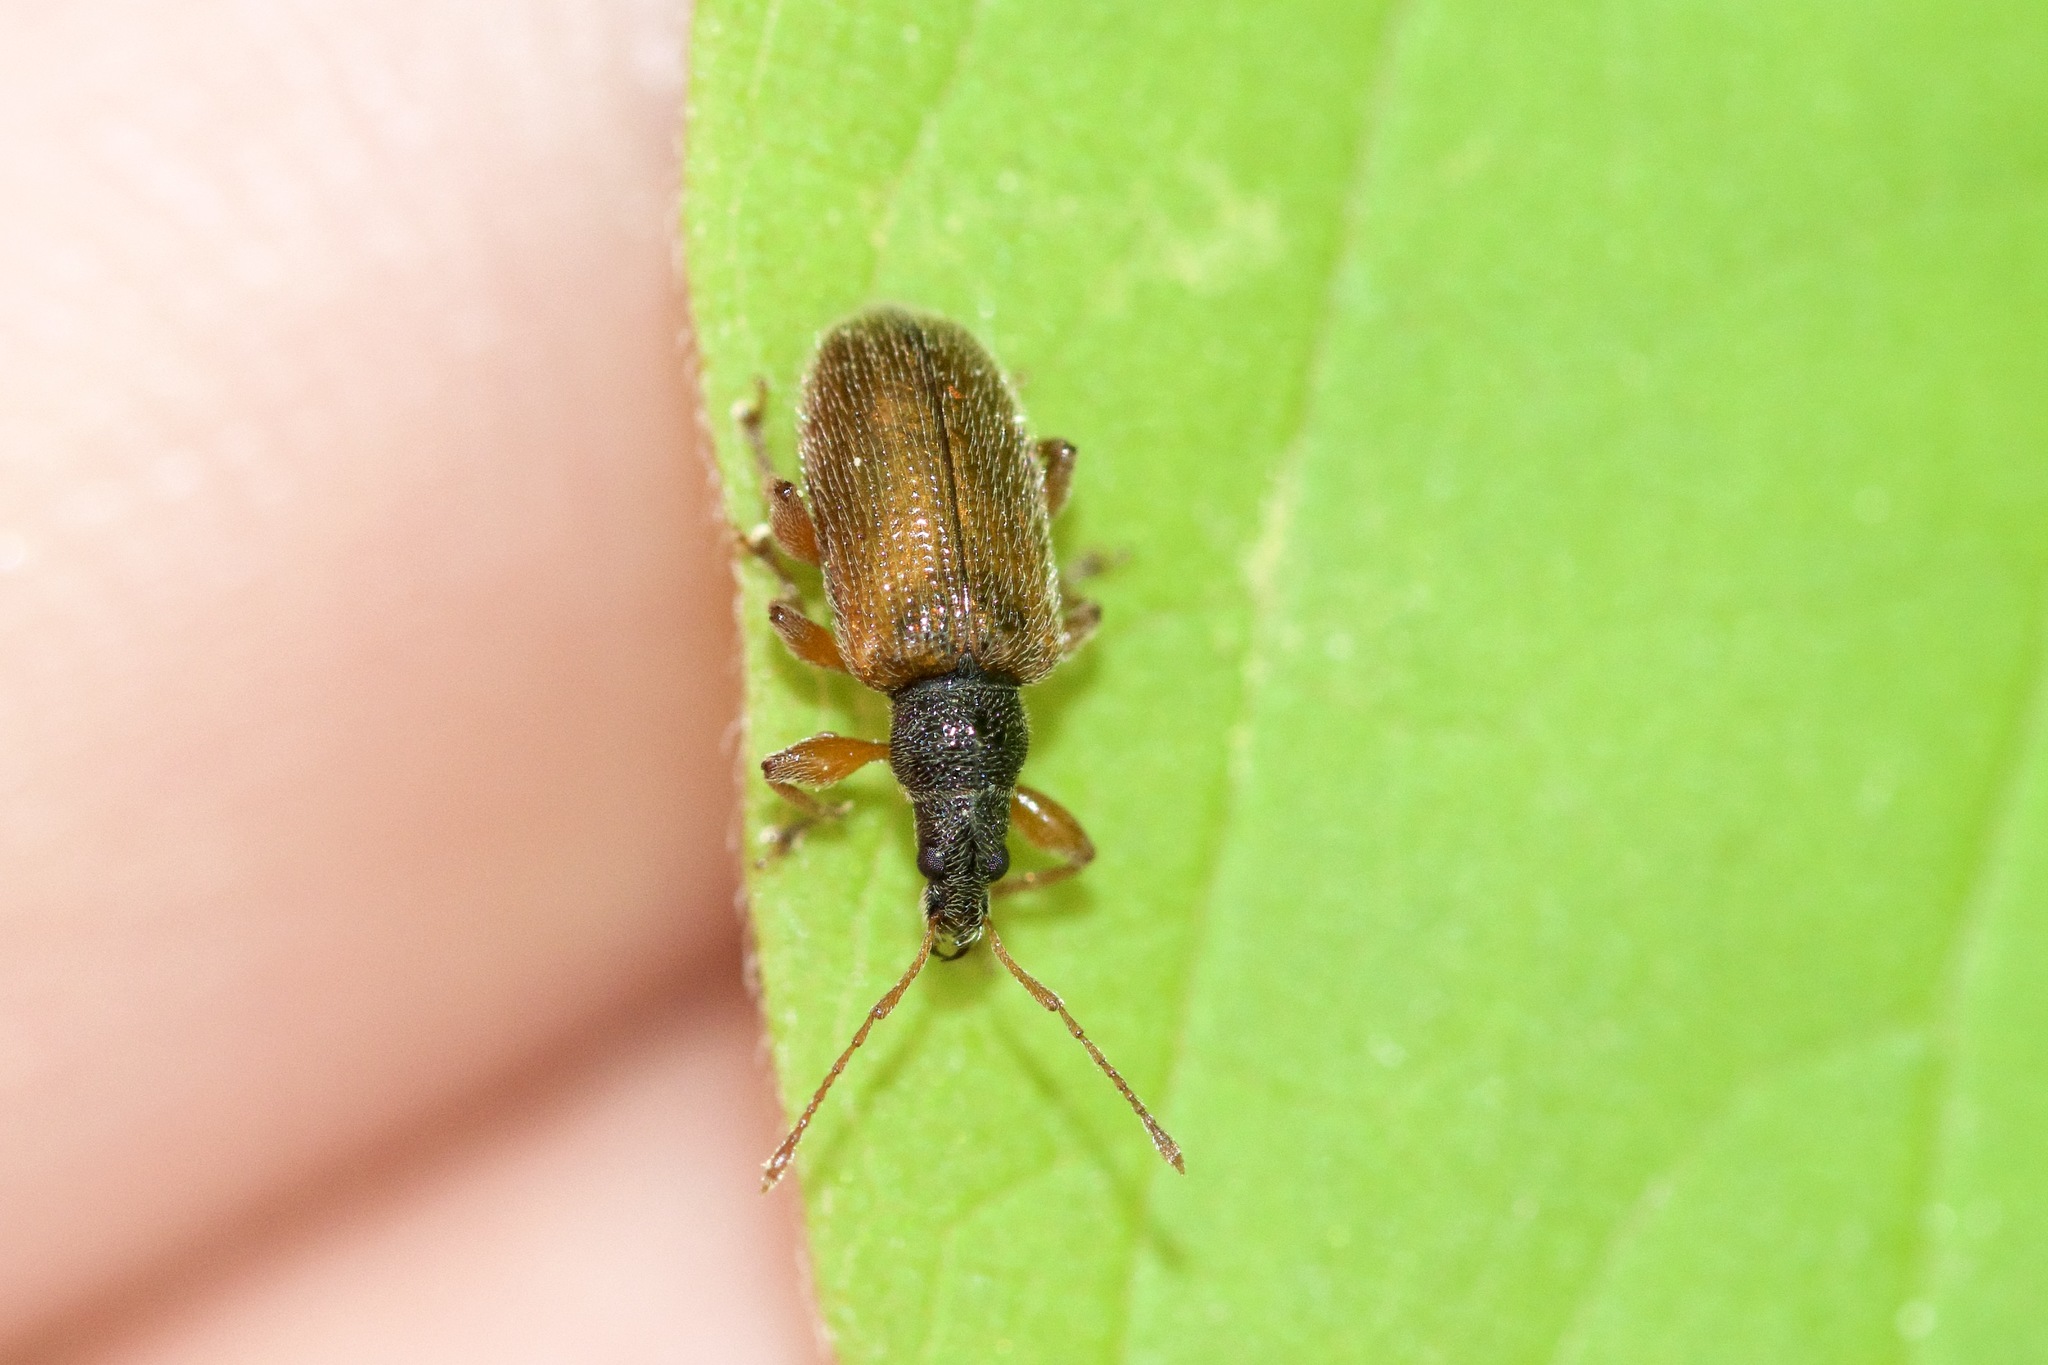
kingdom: Animalia
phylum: Arthropoda
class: Insecta
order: Coleoptera
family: Curculionidae
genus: Phyllobius
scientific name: Phyllobius oblongus
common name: Brown leaf weevil
